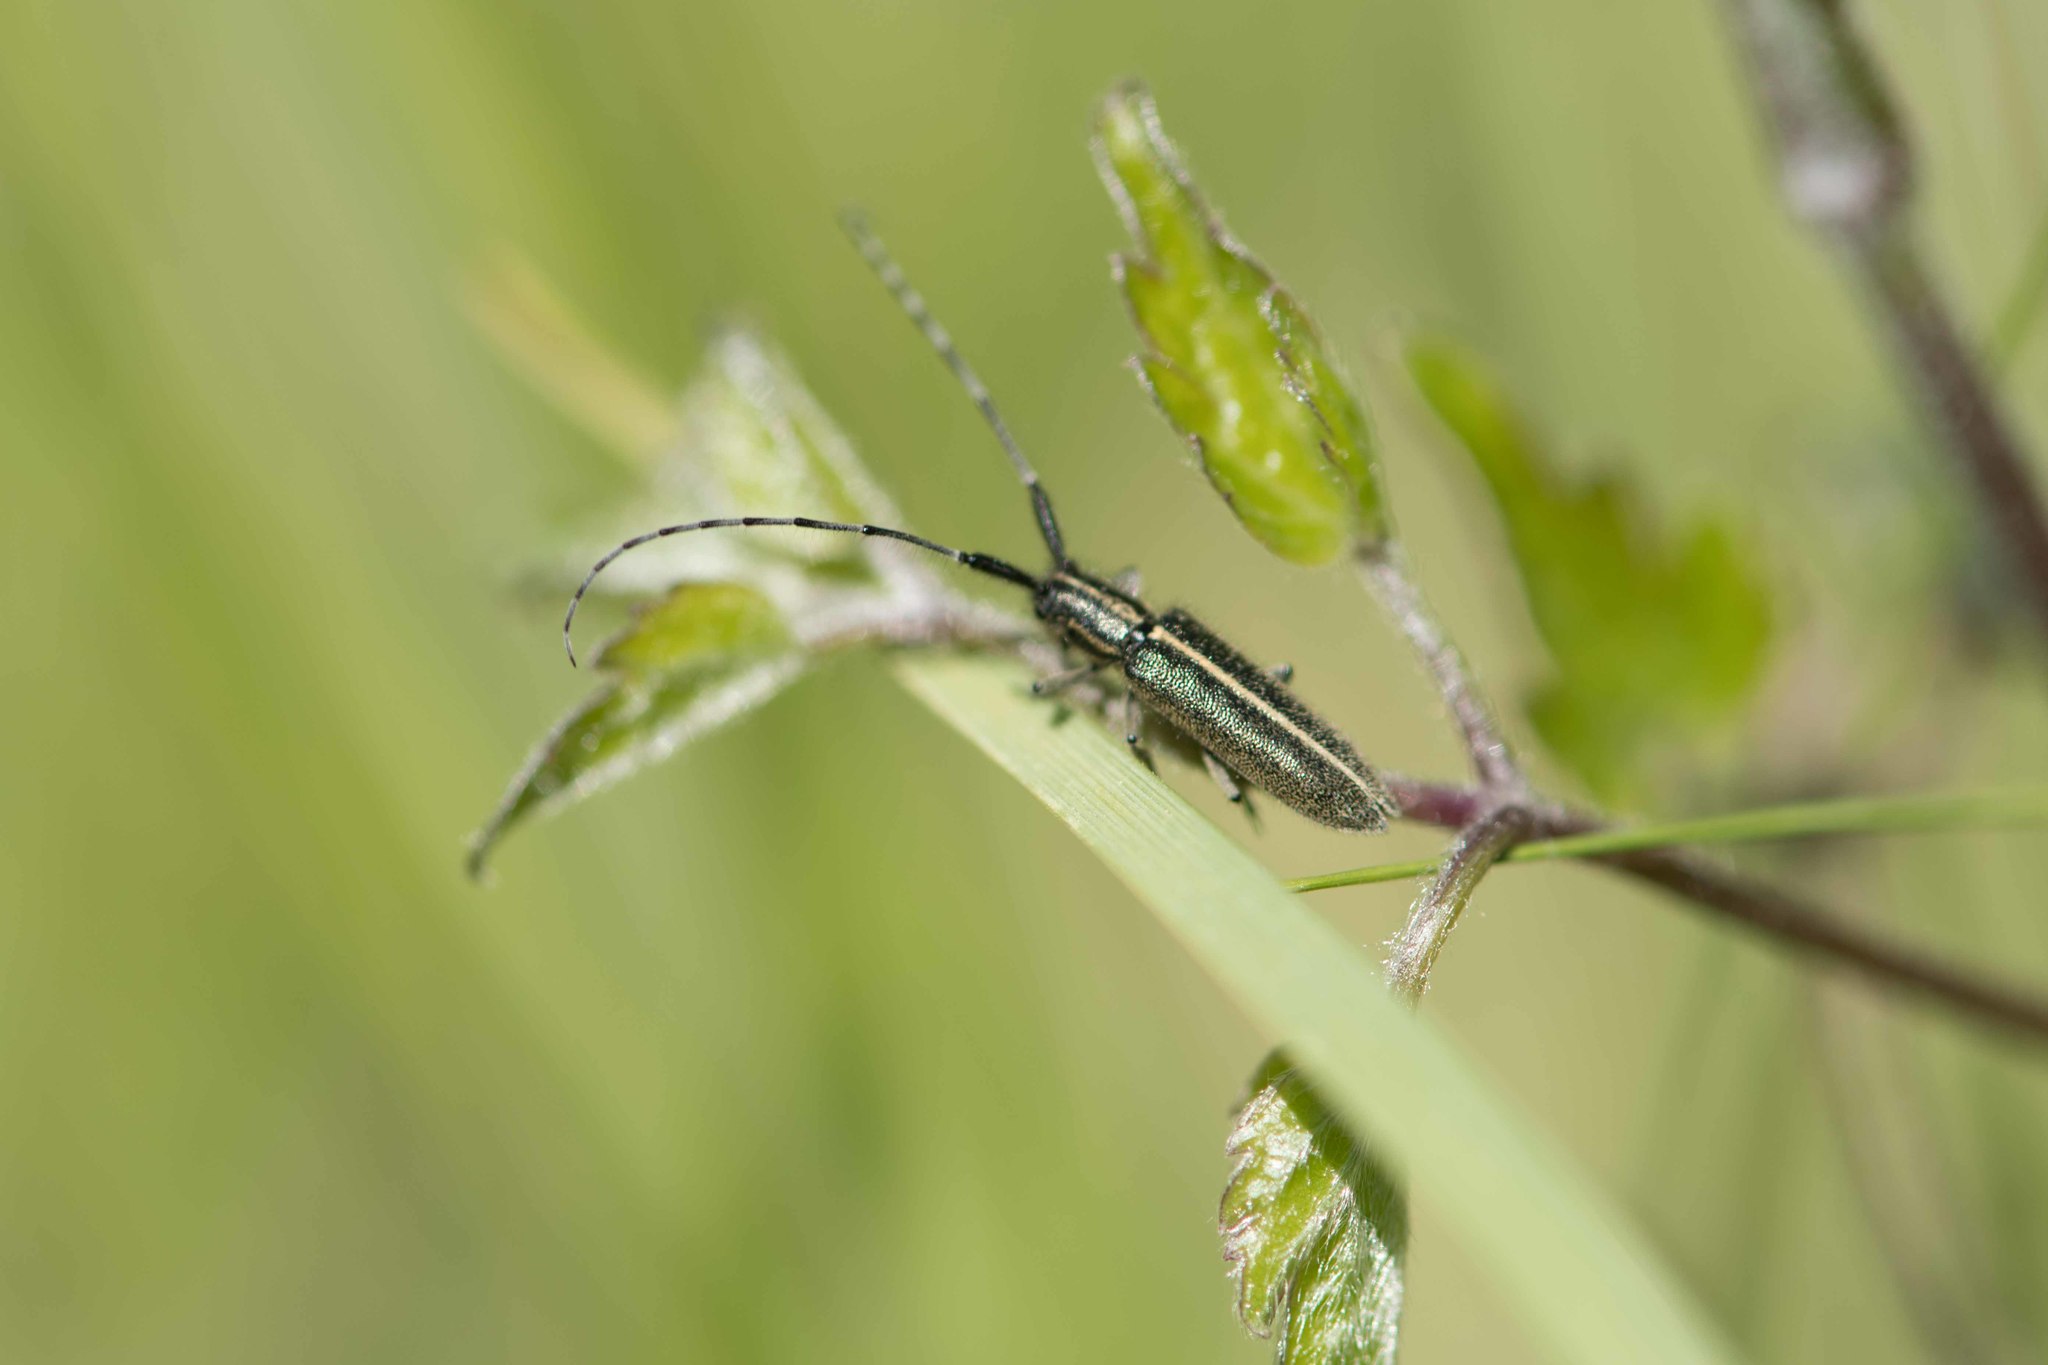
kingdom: Animalia
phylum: Arthropoda
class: Insecta
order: Coleoptera
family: Cerambycidae
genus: Agapanthia
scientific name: Agapanthia cardui
